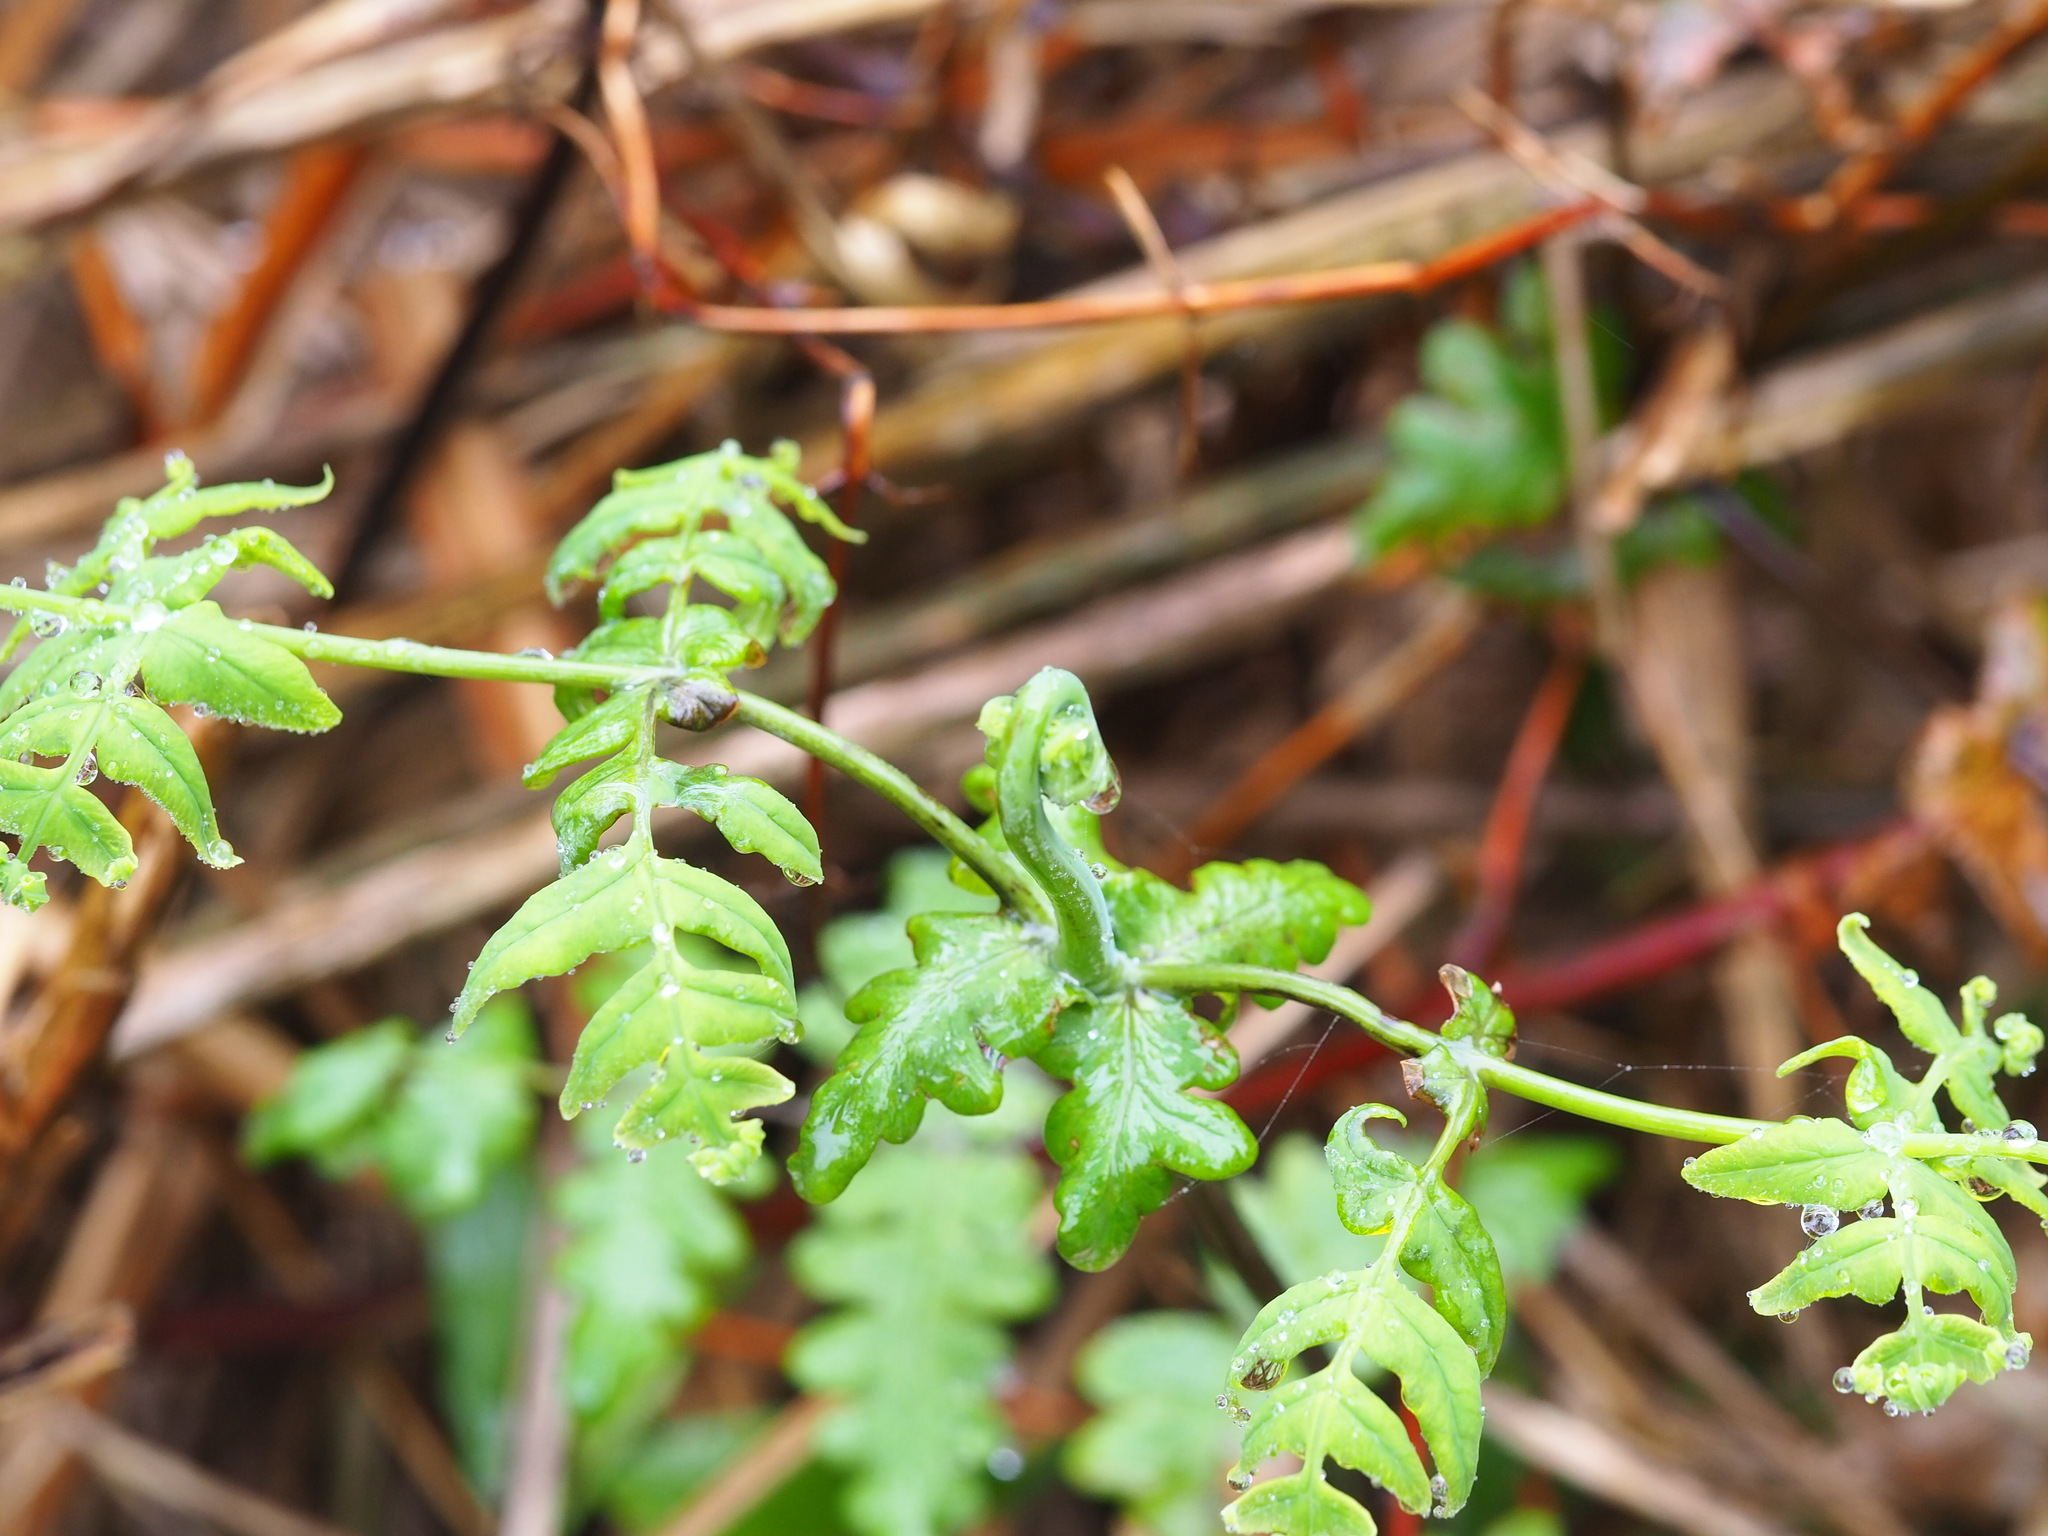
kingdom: Plantae
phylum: Tracheophyta
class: Polypodiopsida
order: Polypodiales
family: Dennstaedtiaceae
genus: Histiopteris
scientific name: Histiopteris incisa
